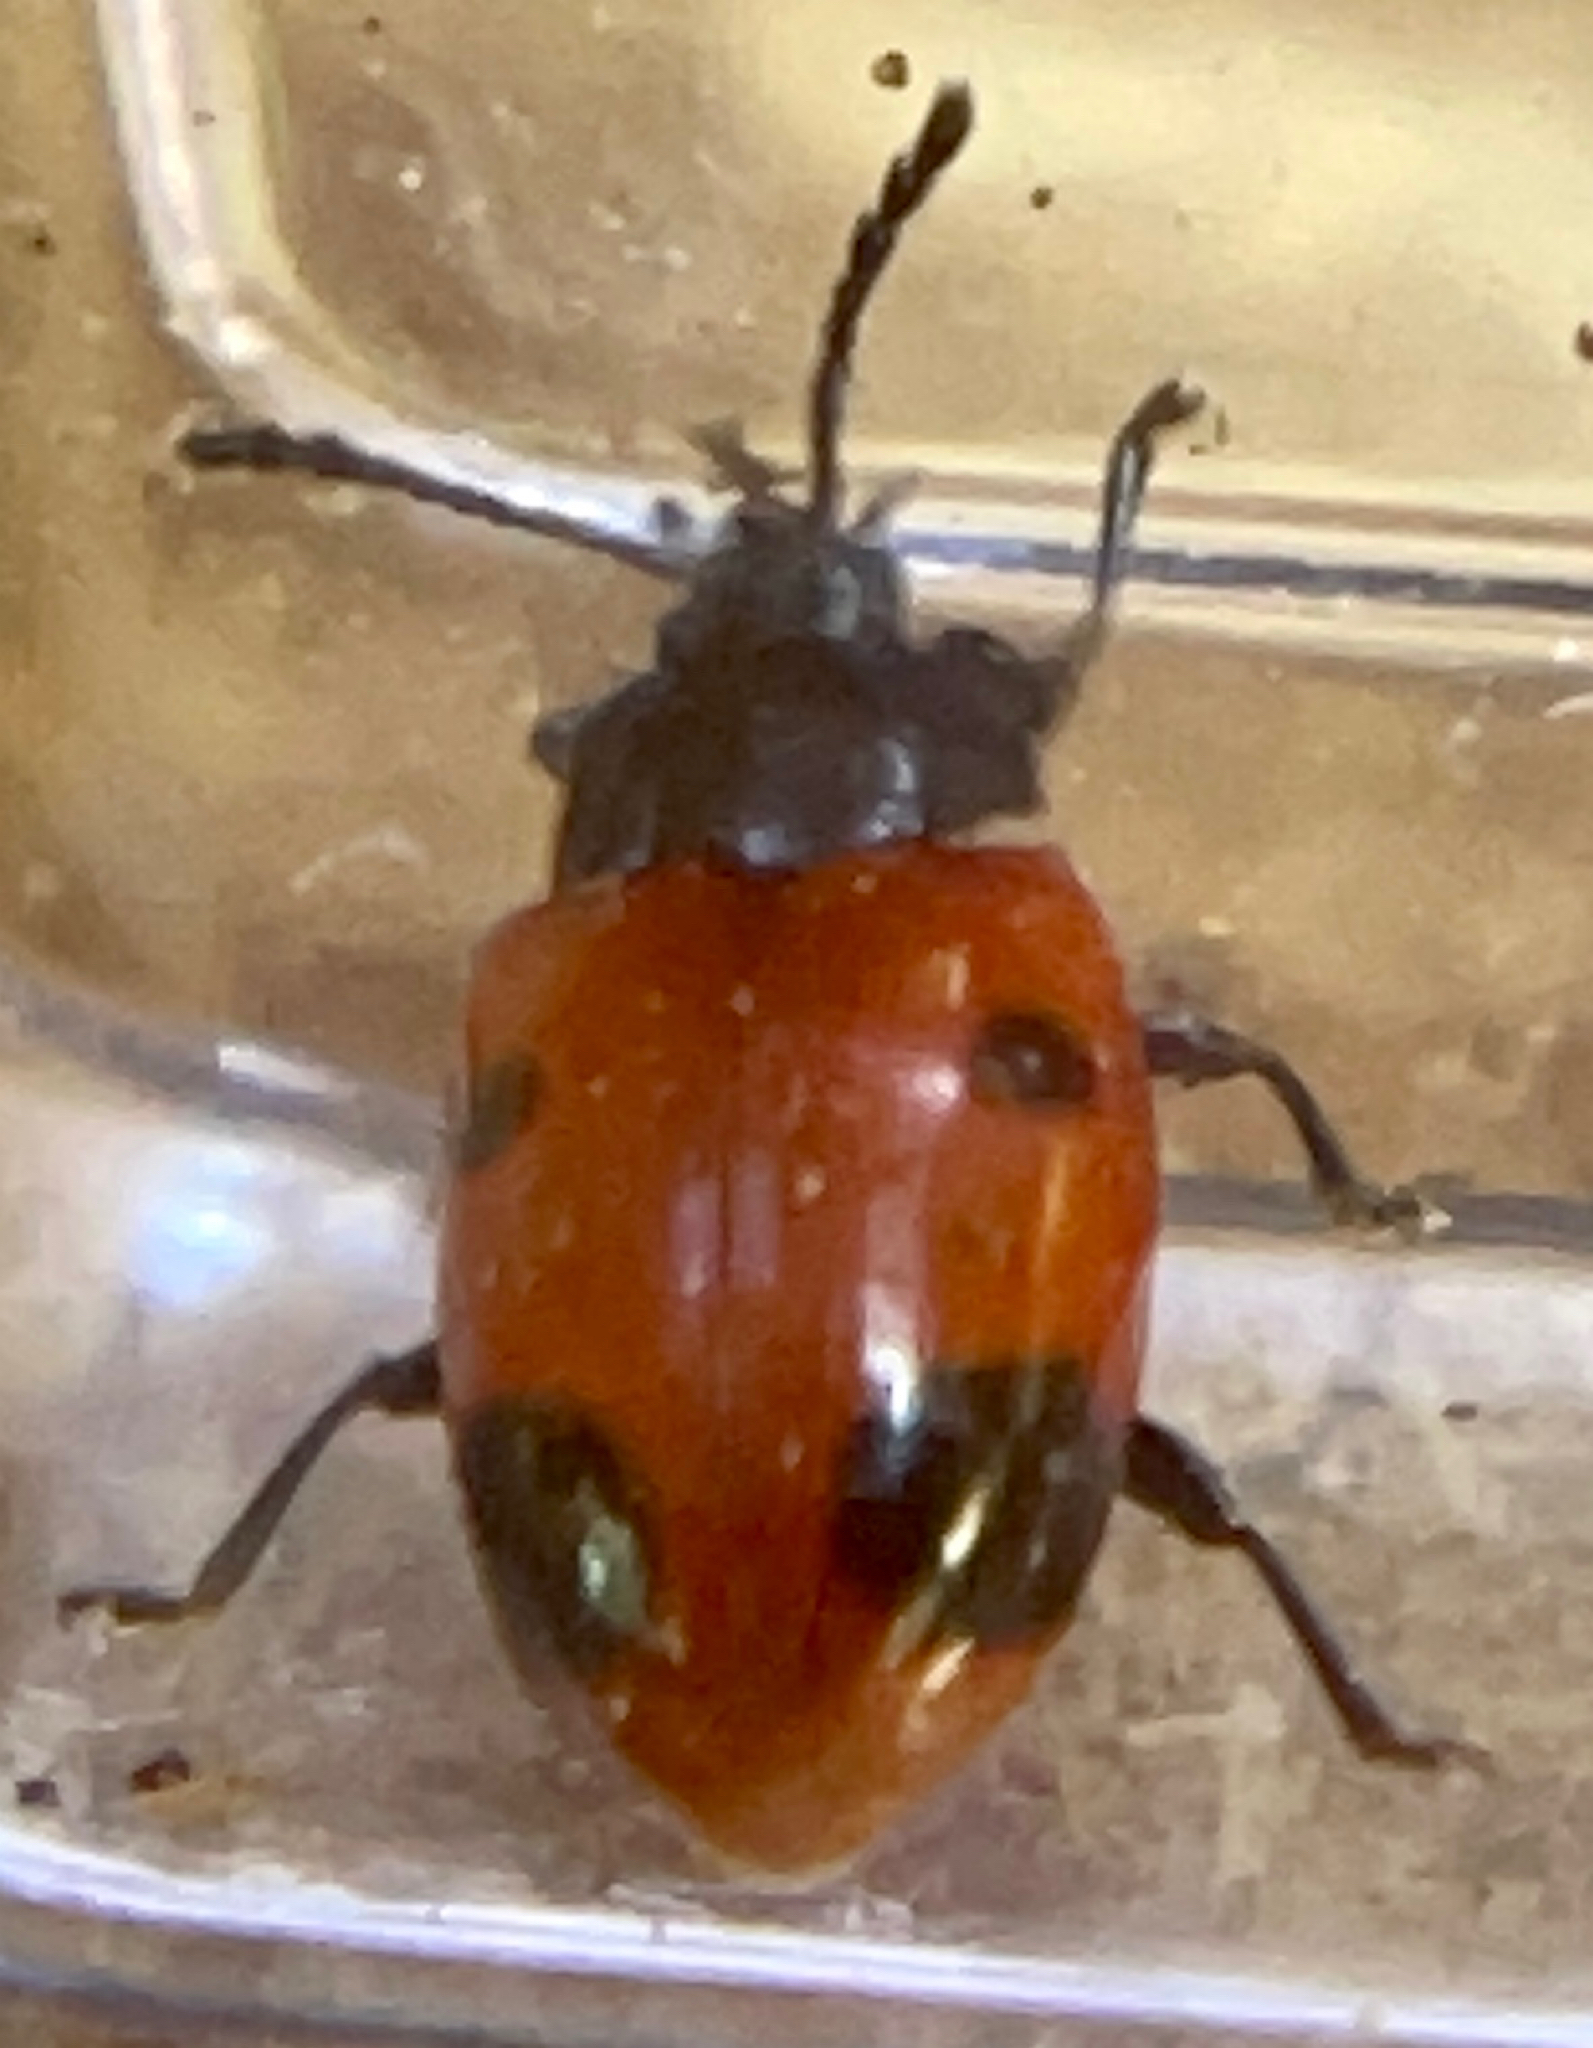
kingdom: Animalia
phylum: Arthropoda
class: Insecta
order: Coleoptera
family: Endomychidae
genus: Endomychus
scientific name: Endomychus biguttatus
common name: Handsome fungus beetle
